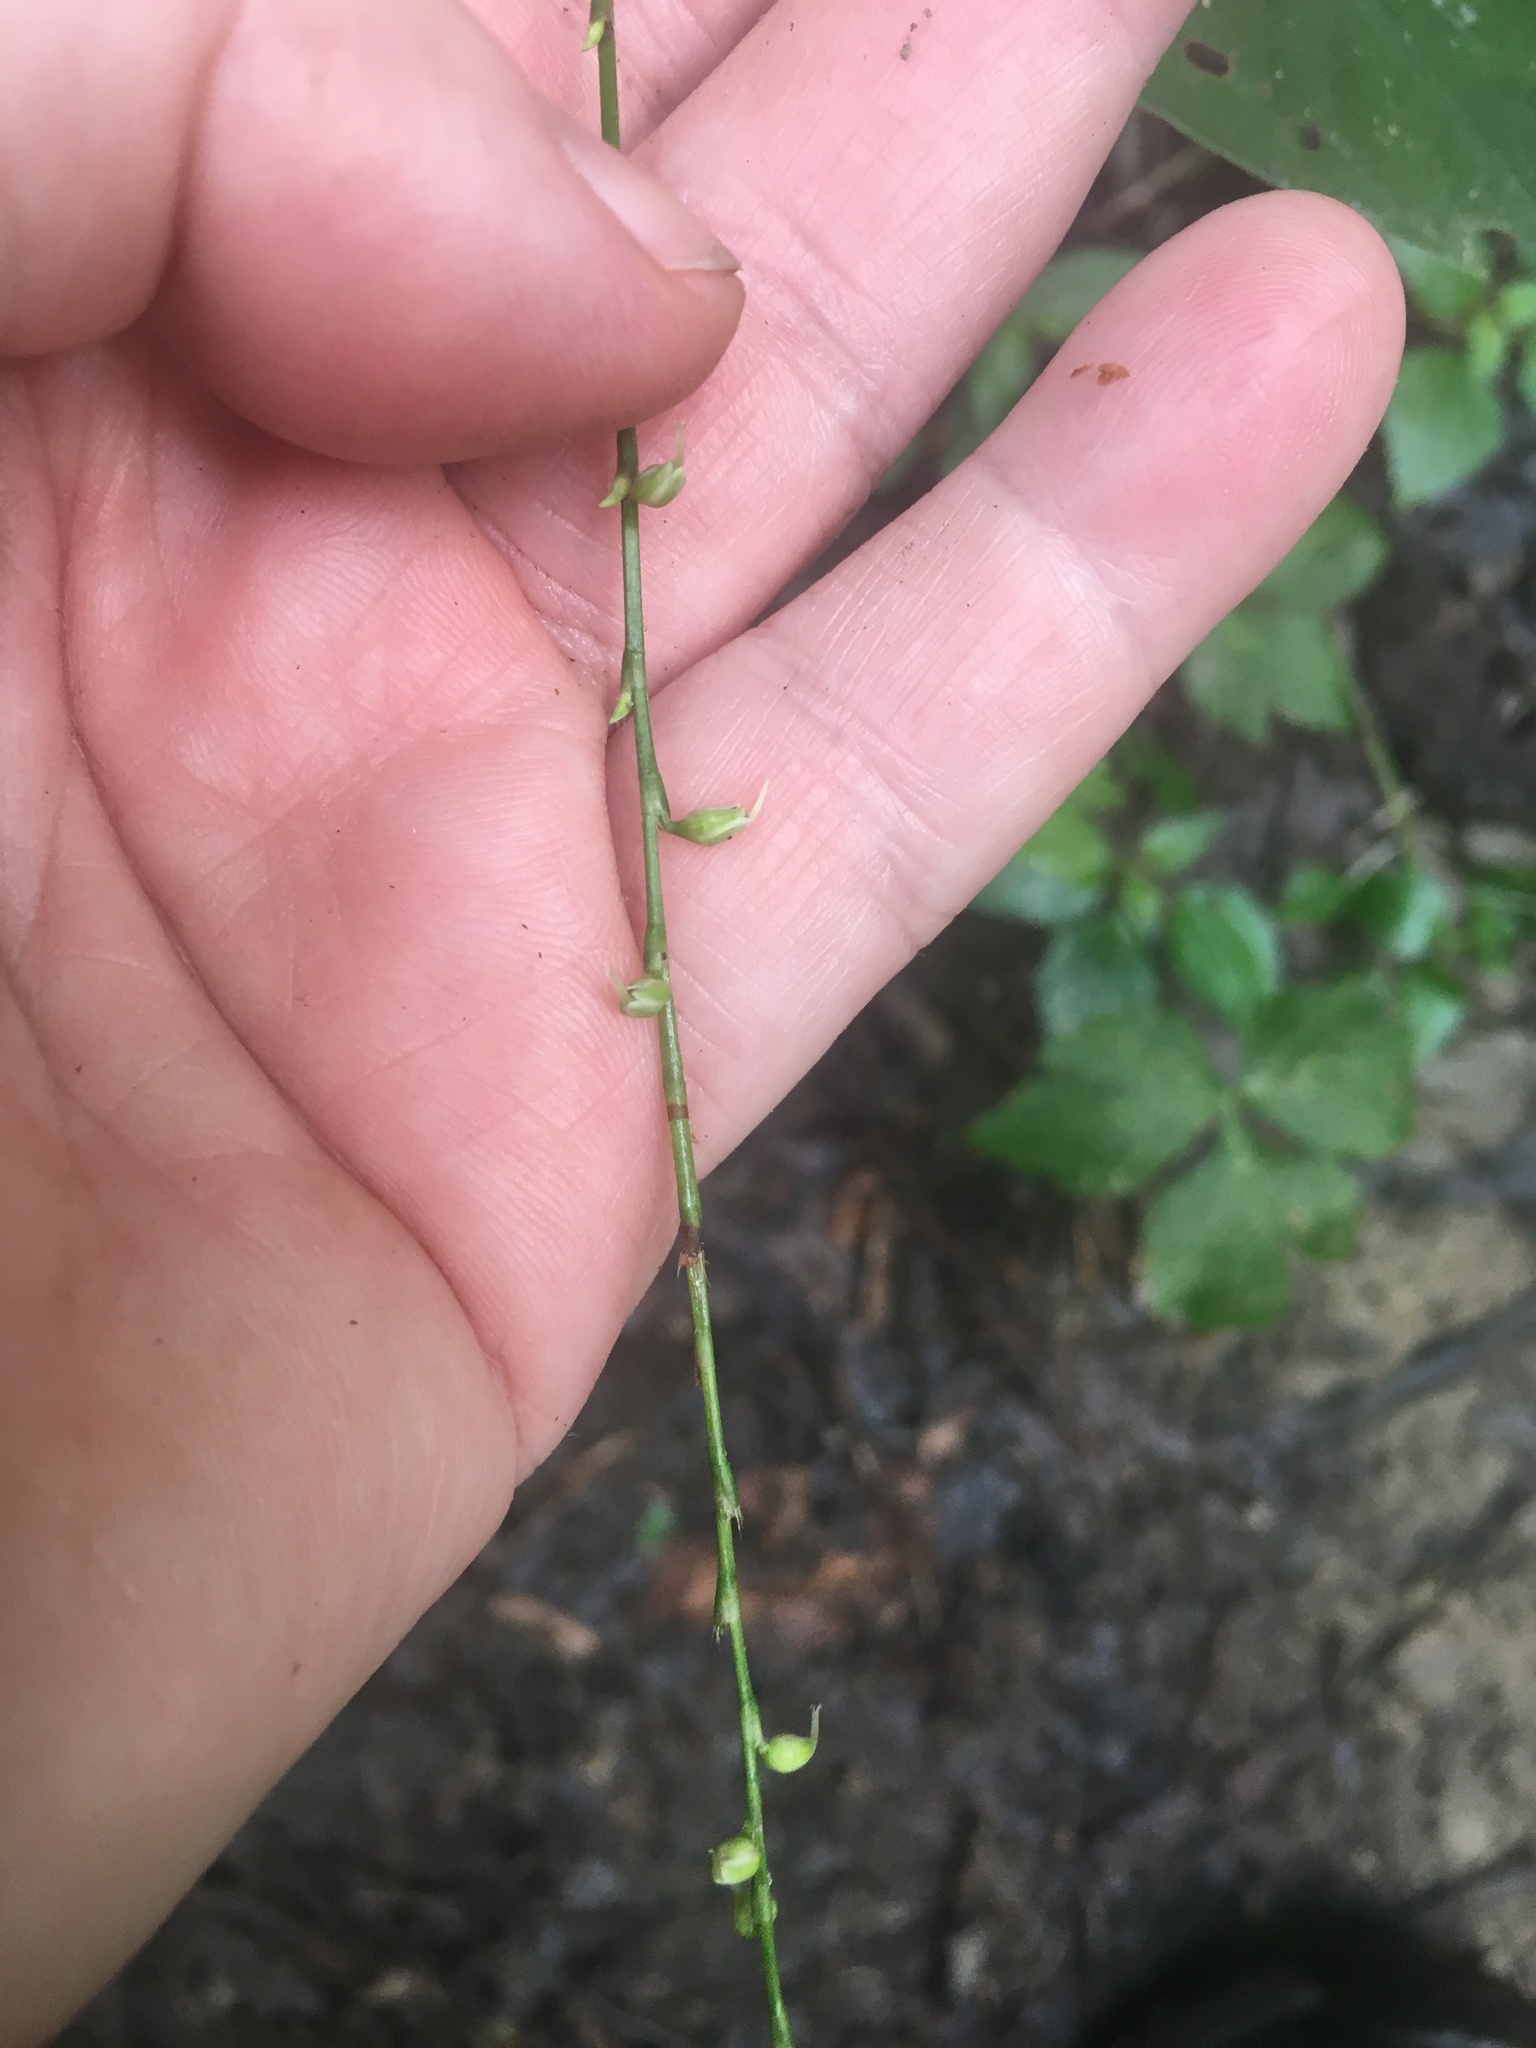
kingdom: Plantae
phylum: Tracheophyta
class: Magnoliopsida
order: Caryophyllales
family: Polygonaceae
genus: Persicaria
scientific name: Persicaria virginiana
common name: Jumpseed
